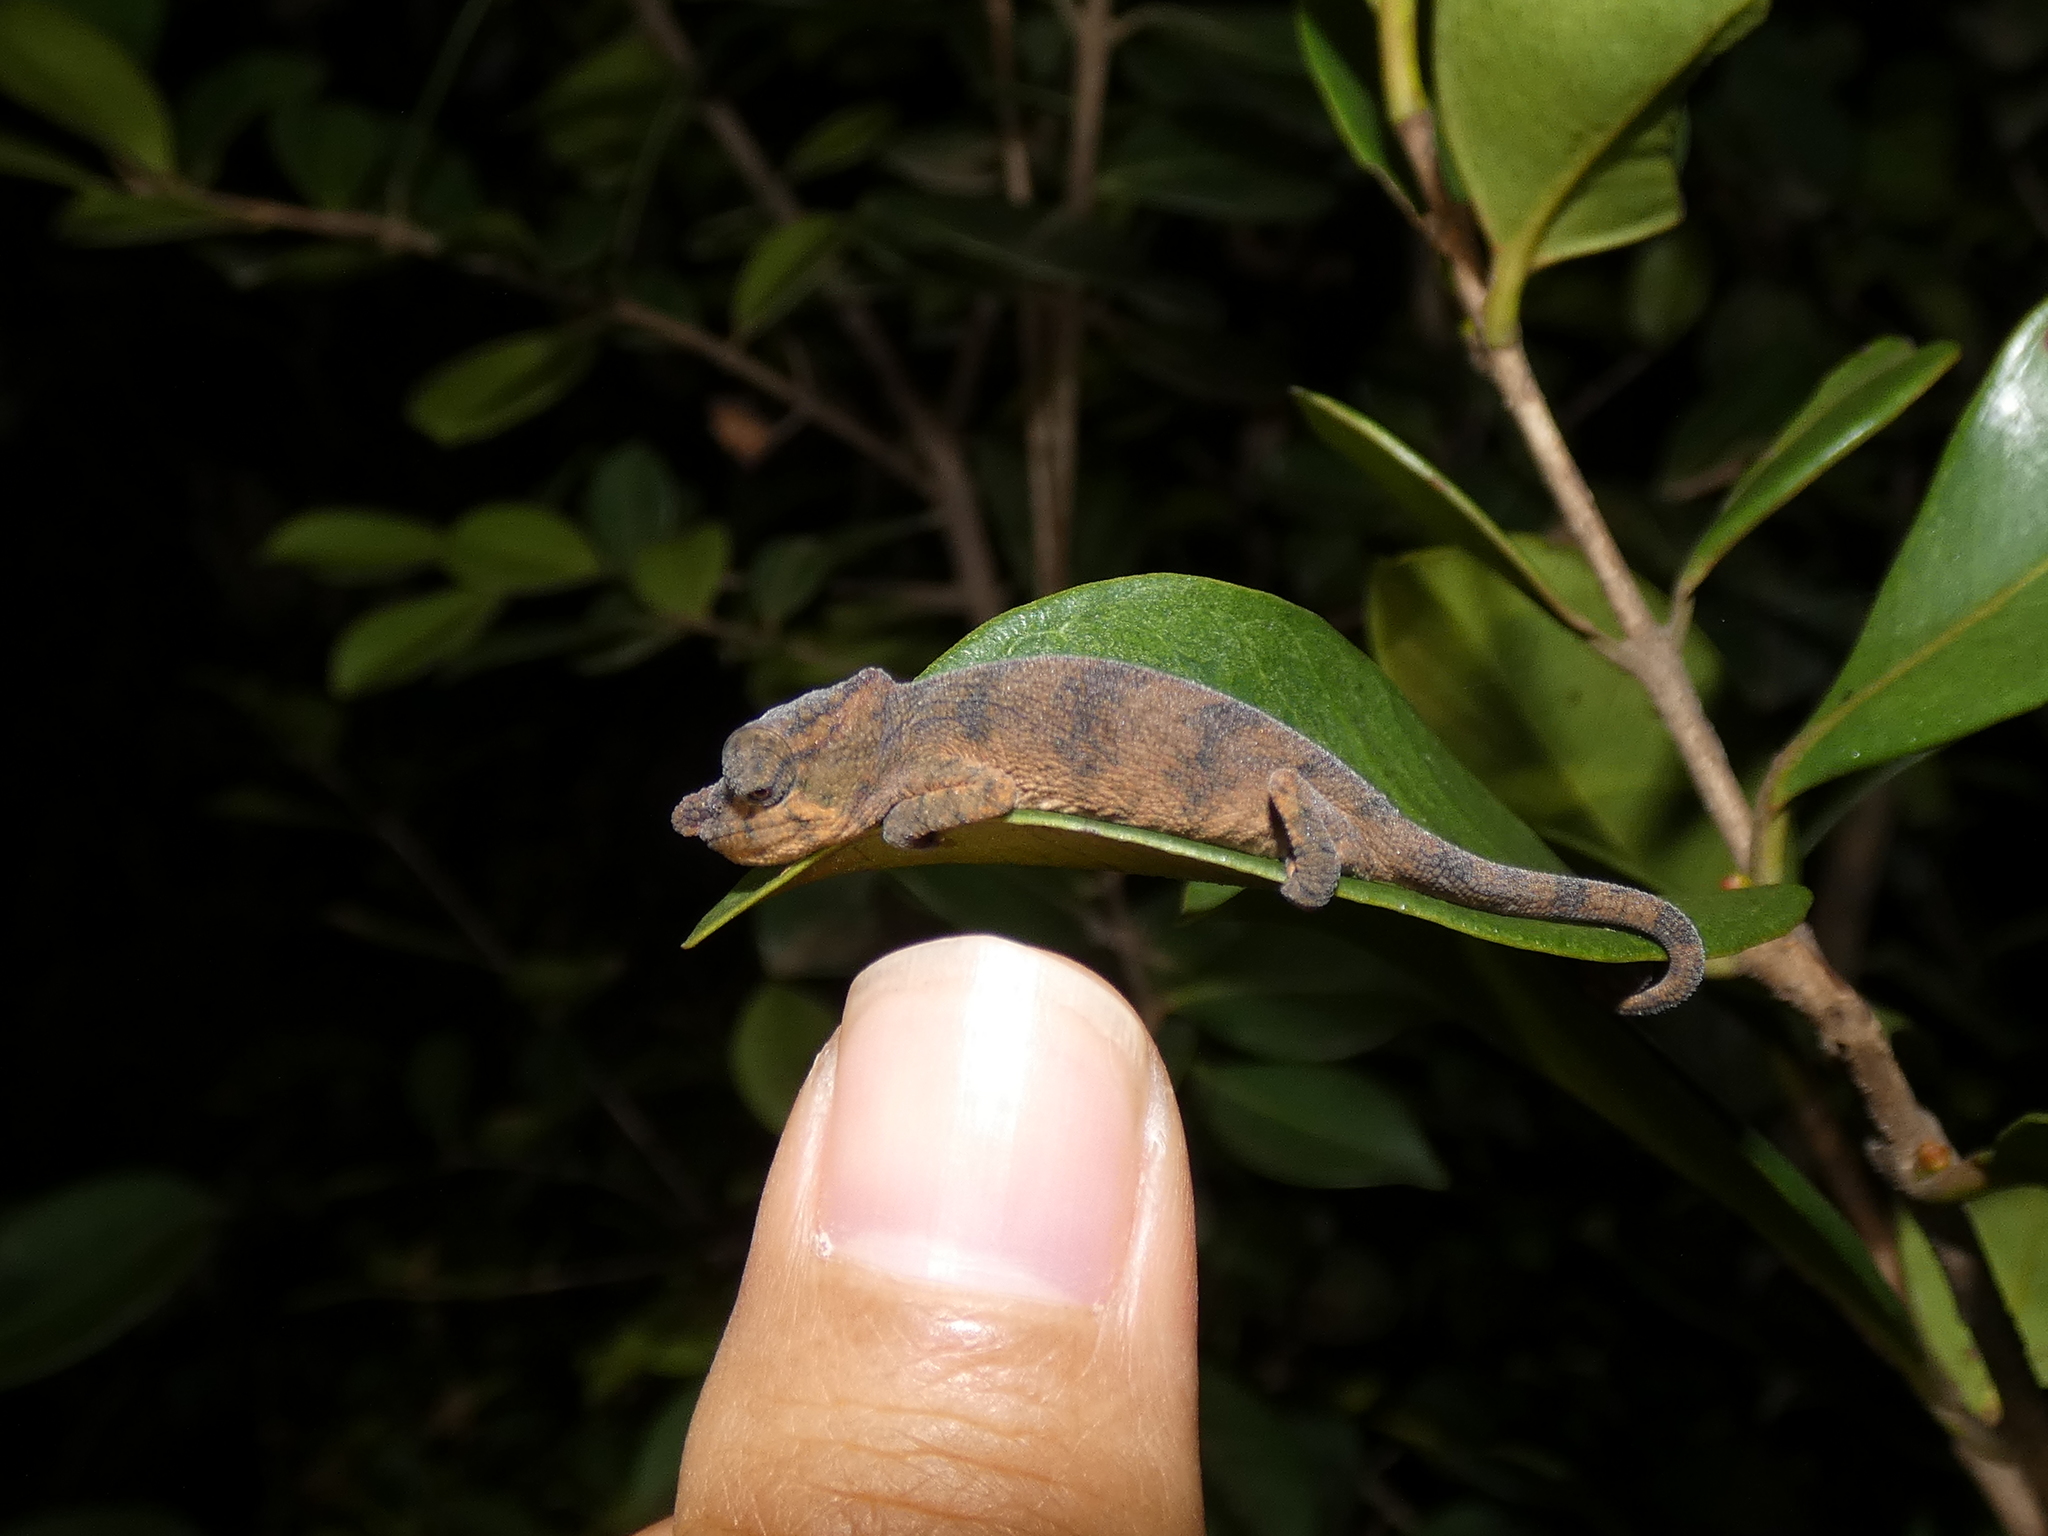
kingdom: Animalia
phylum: Chordata
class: Squamata
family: Chamaeleonidae
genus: Calumma
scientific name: Calumma nasutum
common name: Nose-horned chameleon
